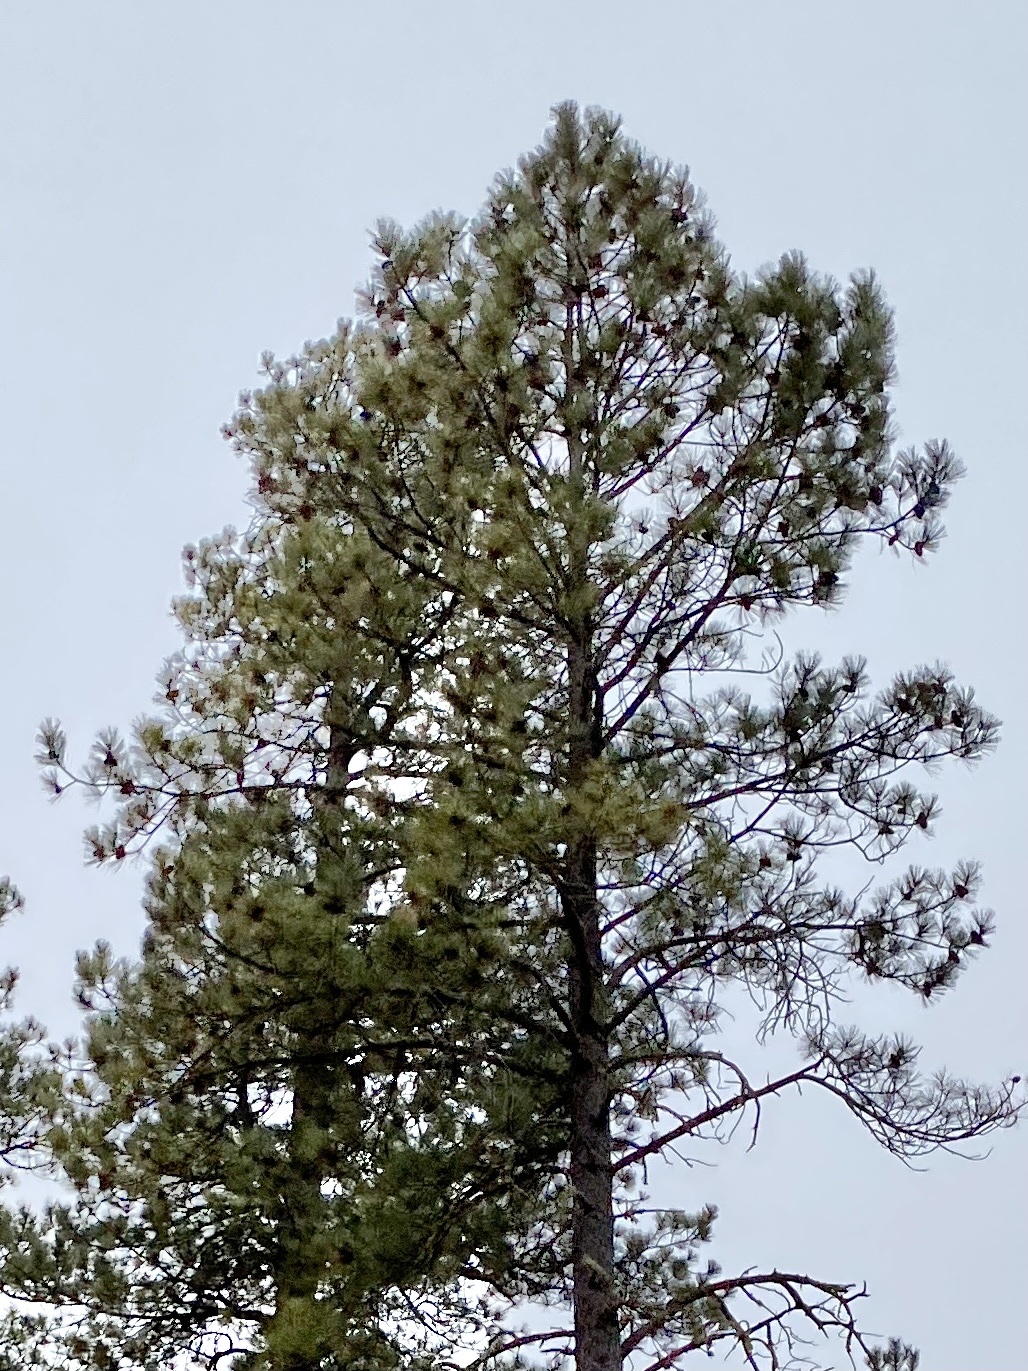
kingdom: Plantae
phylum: Tracheophyta
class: Pinopsida
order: Pinales
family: Pinaceae
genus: Pinus
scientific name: Pinus ponderosa
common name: Western yellow-pine
